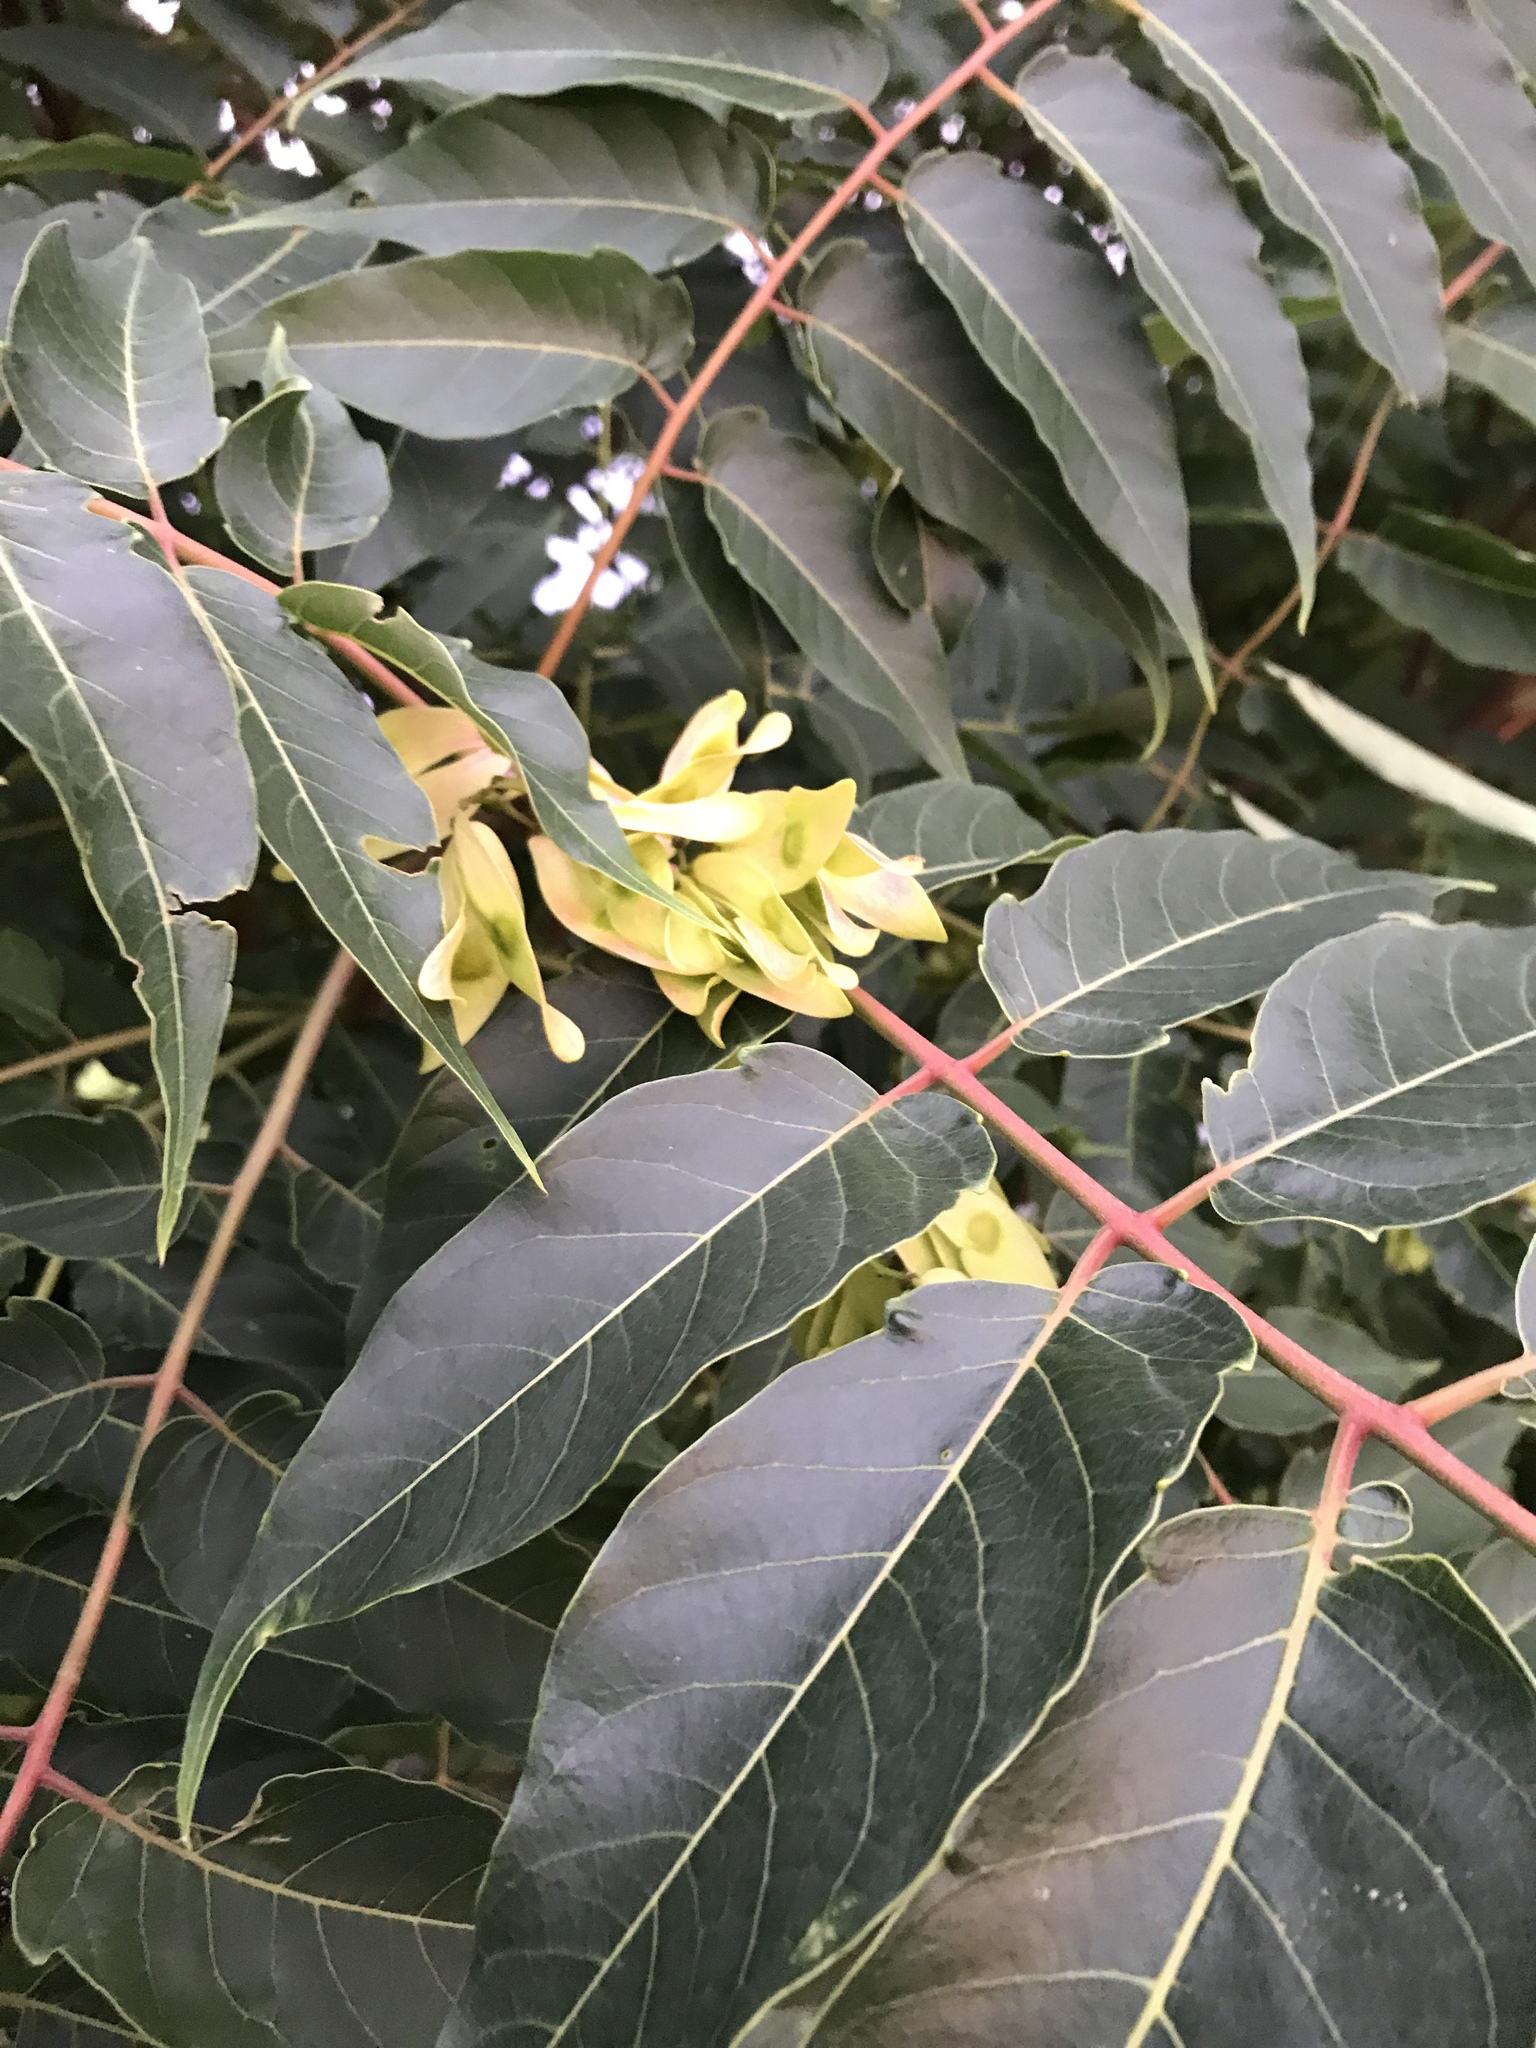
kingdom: Plantae
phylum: Tracheophyta
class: Magnoliopsida
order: Sapindales
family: Simaroubaceae
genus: Ailanthus
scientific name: Ailanthus altissima
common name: Tree-of-heaven
